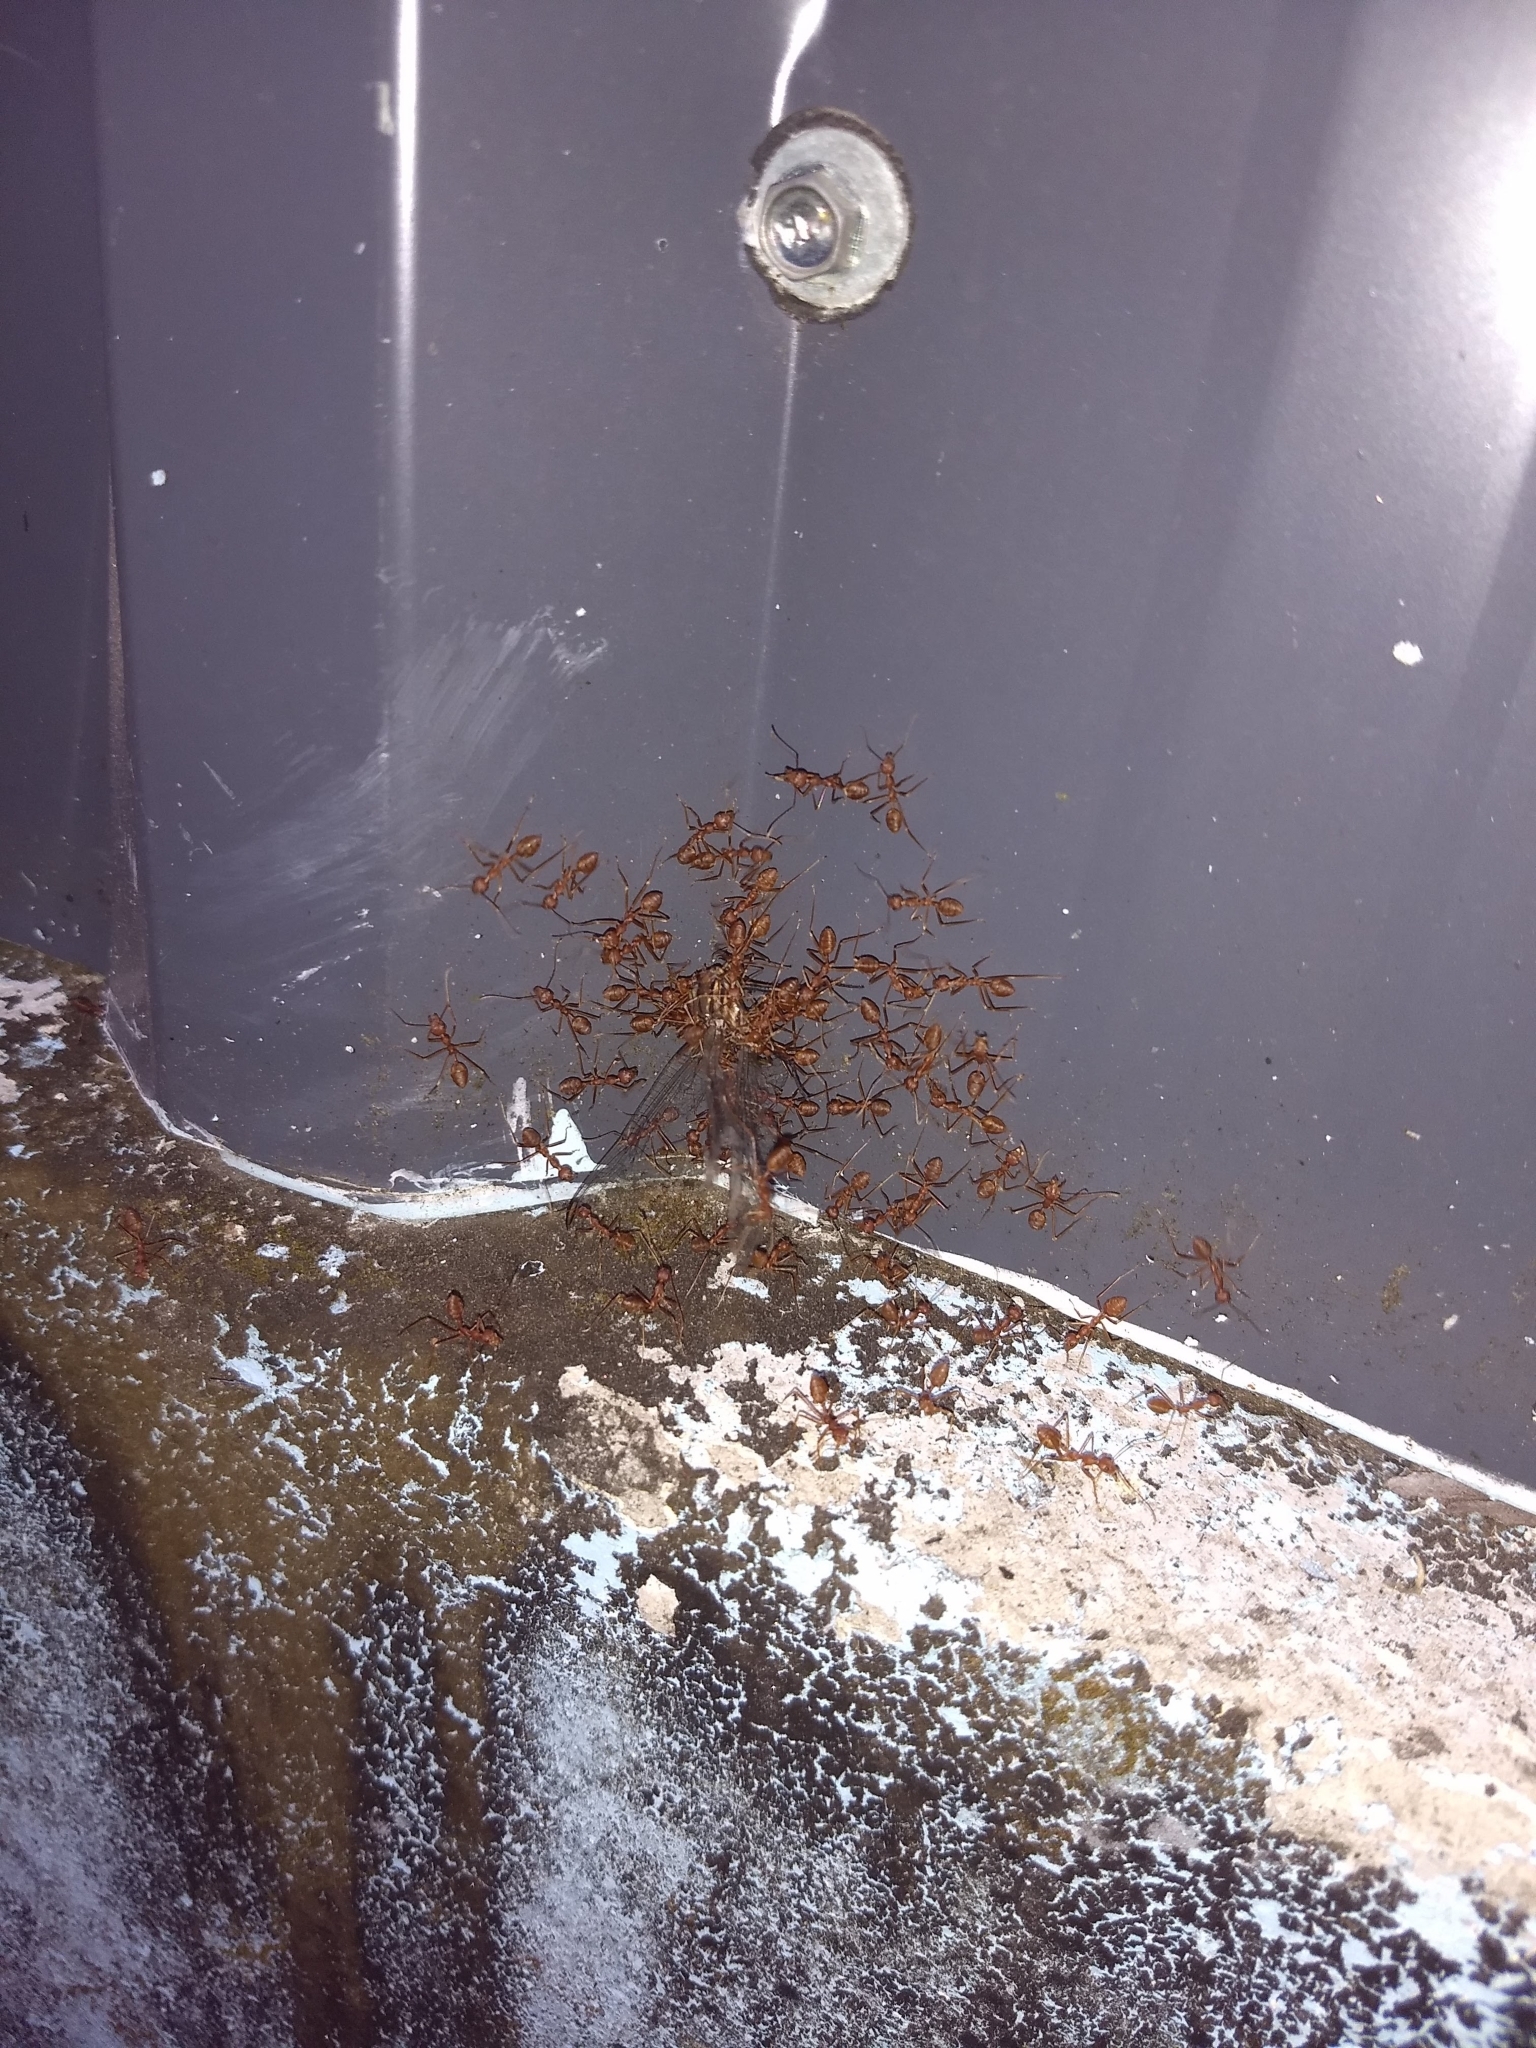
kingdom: Animalia
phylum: Arthropoda
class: Insecta
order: Hymenoptera
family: Formicidae
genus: Oecophylla
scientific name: Oecophylla smaragdina
